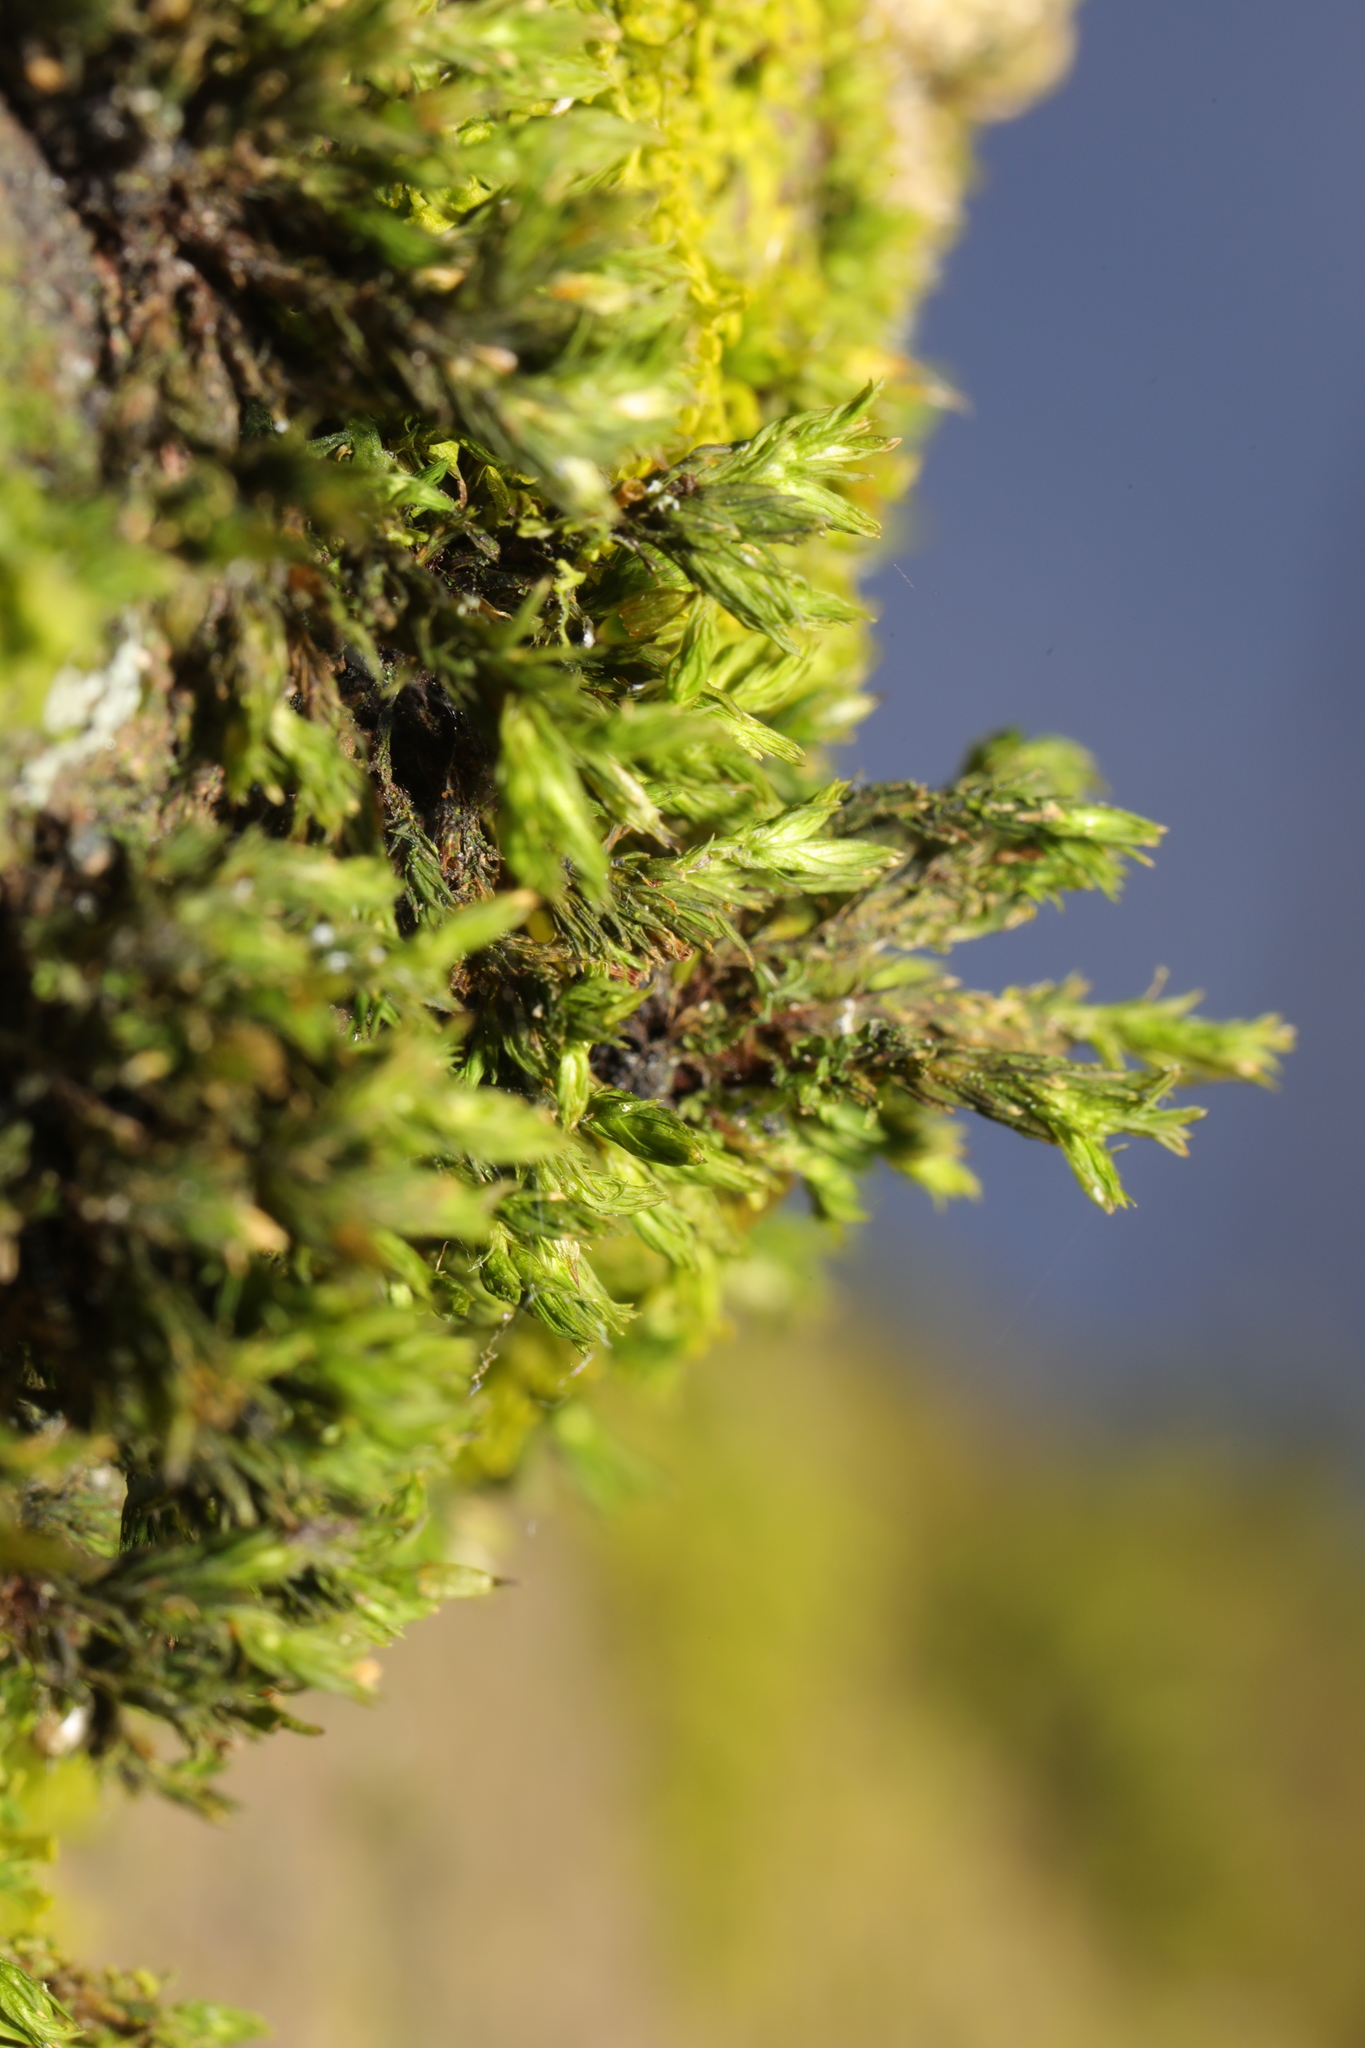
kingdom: Plantae
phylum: Bryophyta
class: Bryopsida
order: Hypnales
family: Cryphaeaceae
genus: Cryphaea
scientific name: Cryphaea heteromalla
